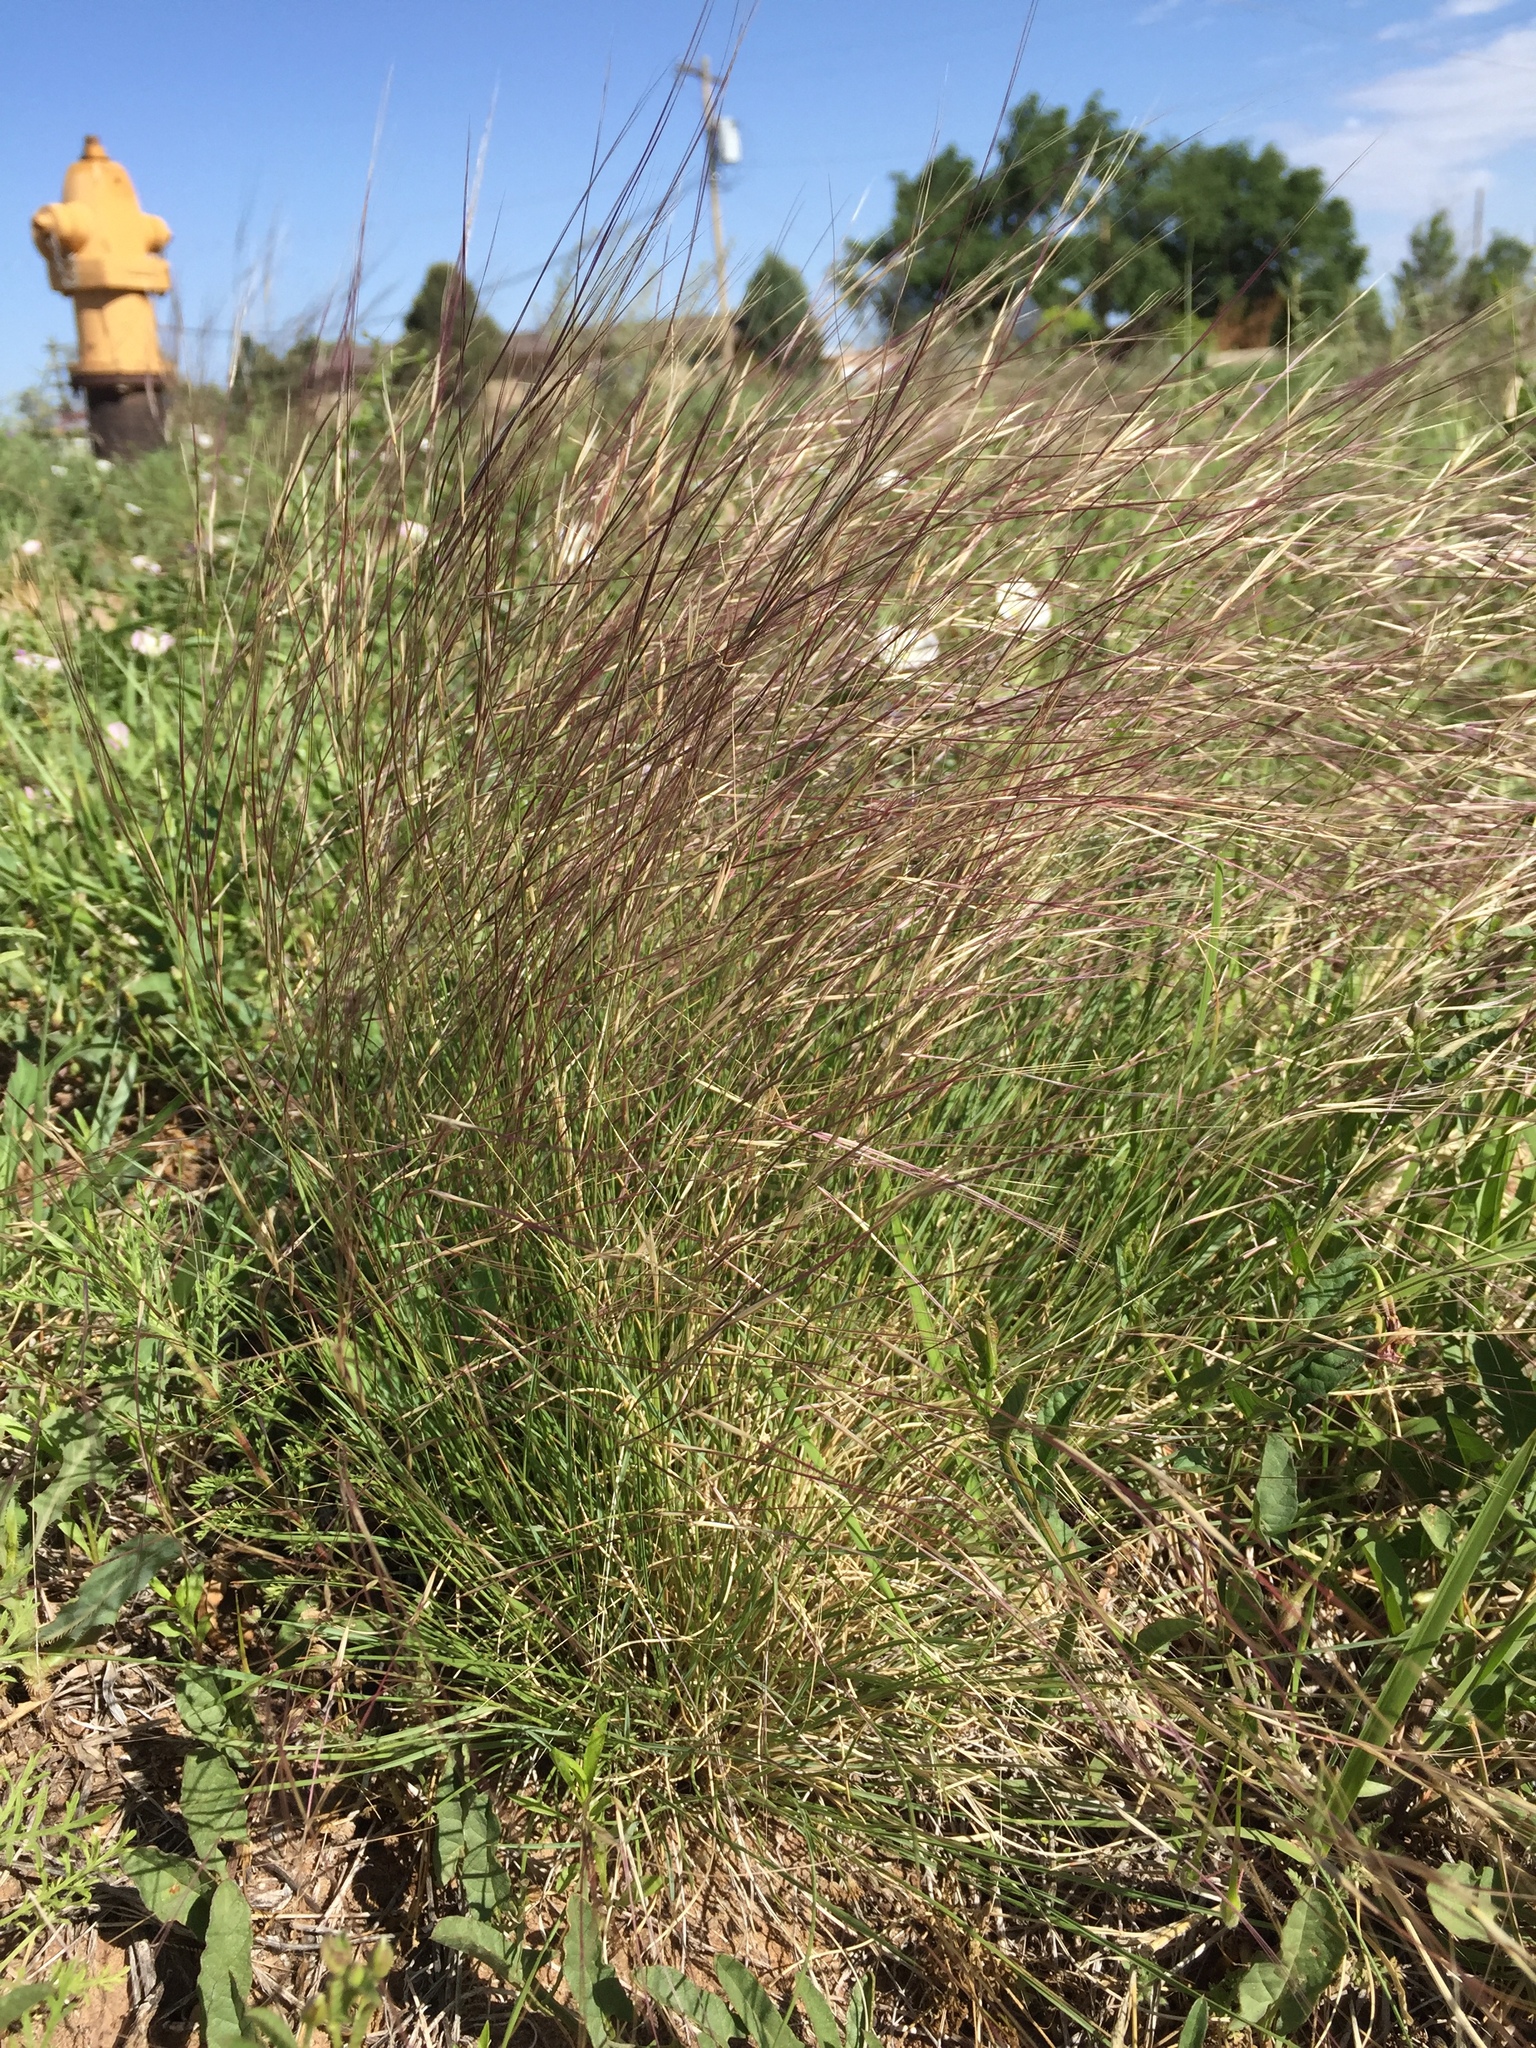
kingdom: Plantae
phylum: Tracheophyta
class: Liliopsida
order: Poales
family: Poaceae
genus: Aristida
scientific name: Aristida purpurea
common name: Purple threeawn
